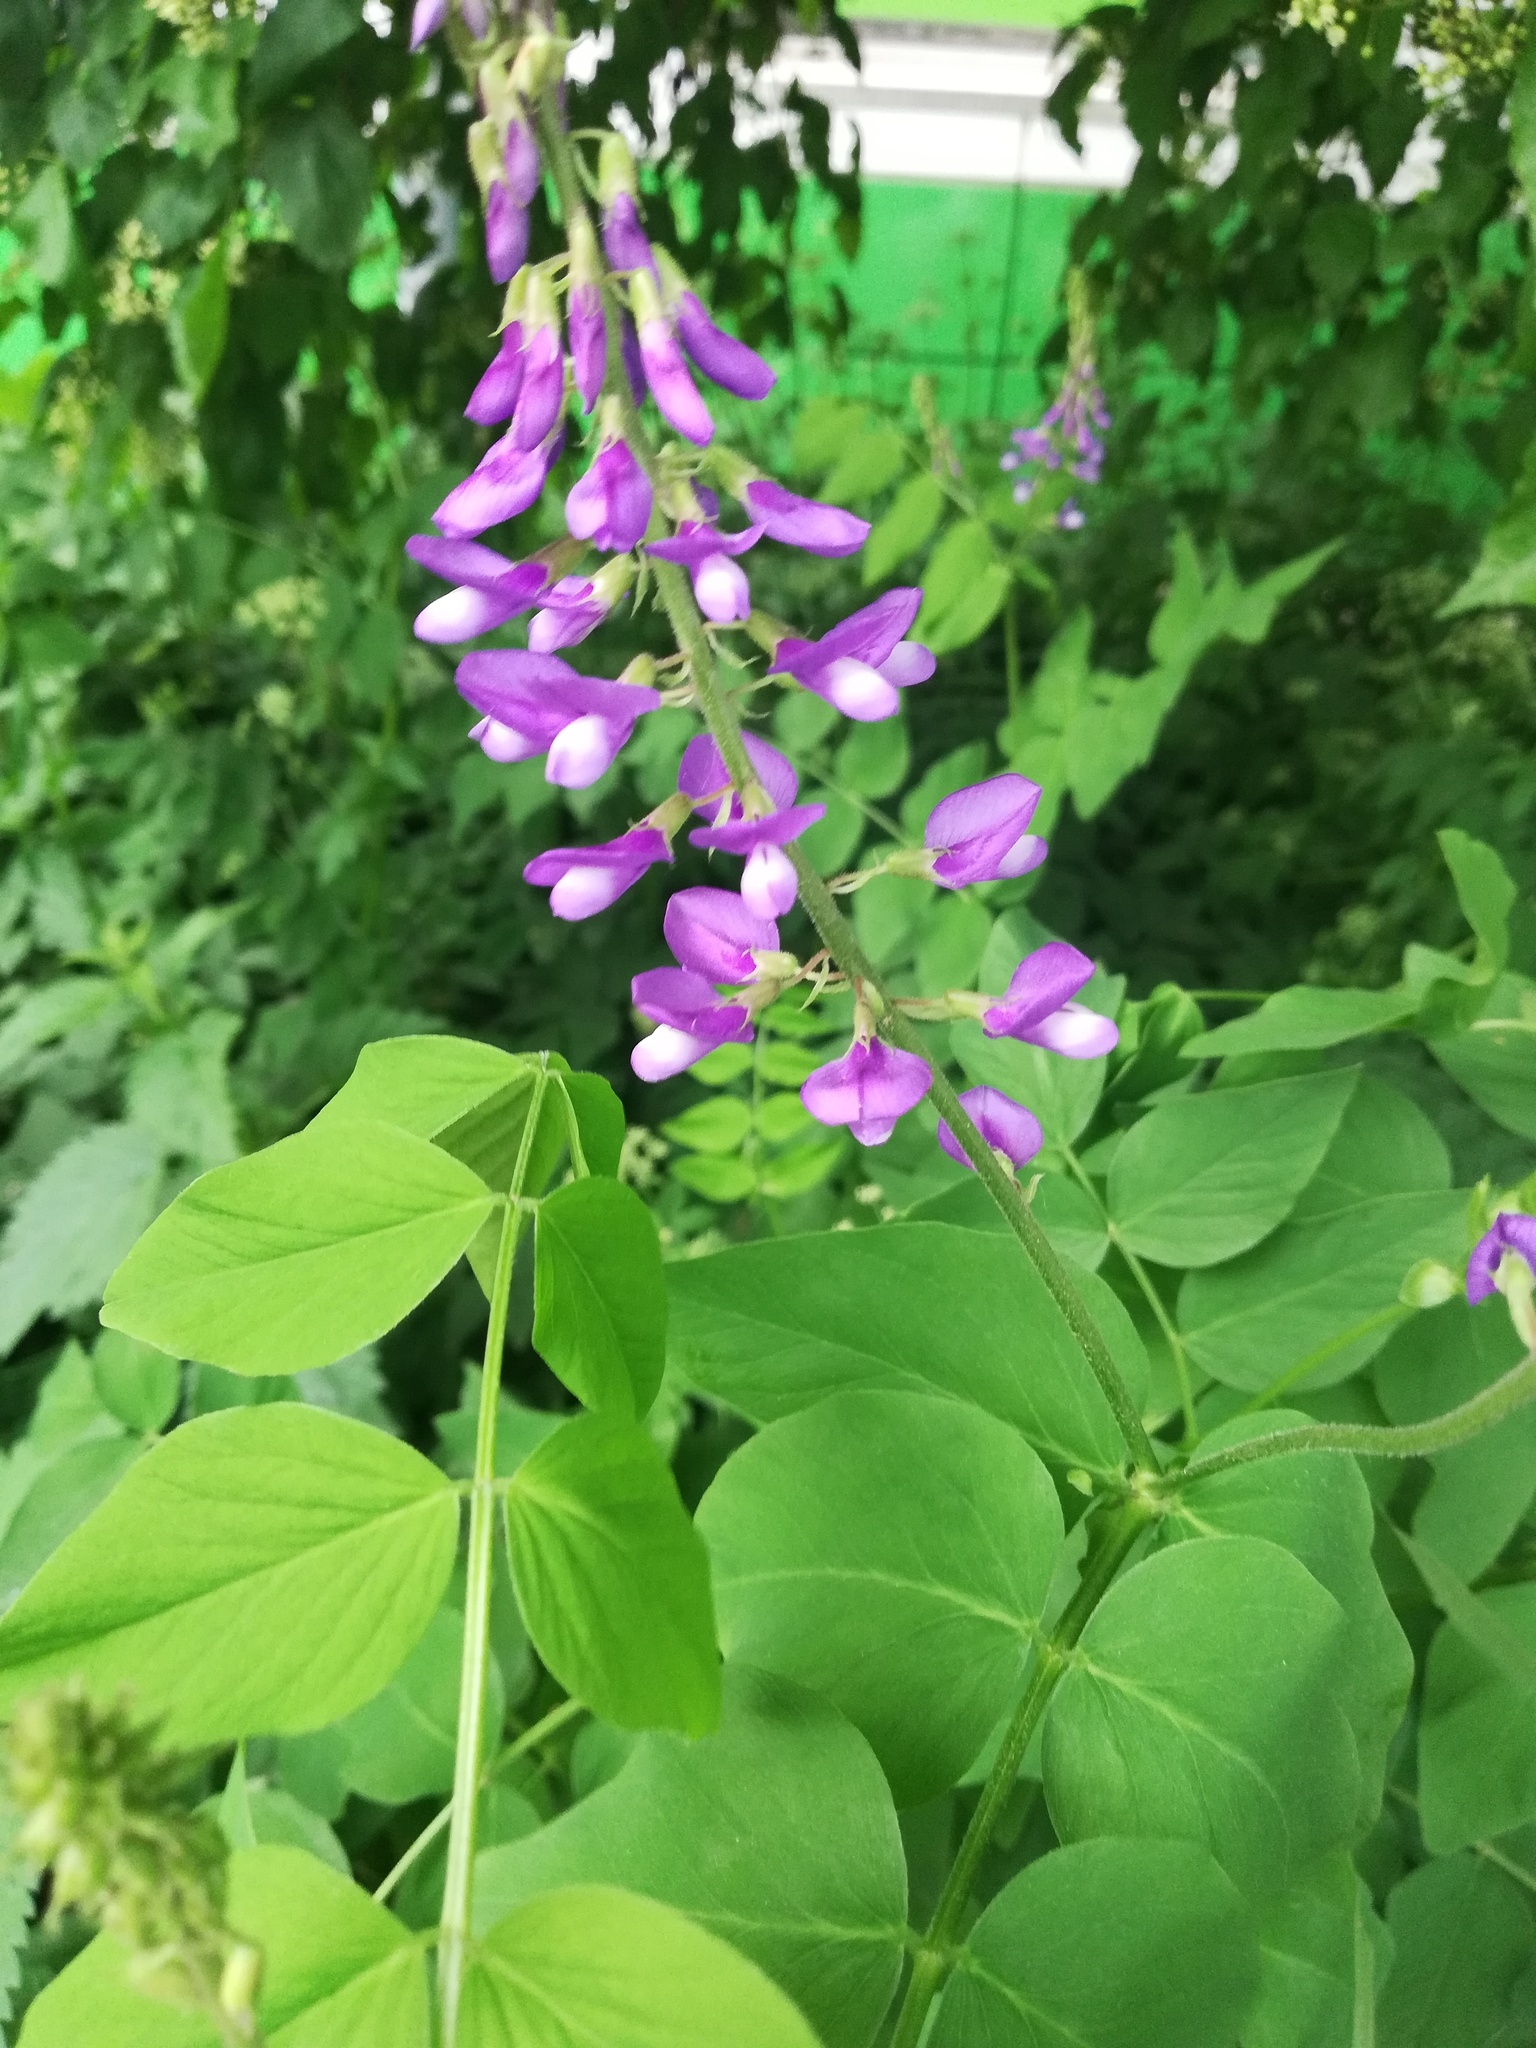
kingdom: Plantae
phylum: Tracheophyta
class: Magnoliopsida
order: Fabales
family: Fabaceae
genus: Galega
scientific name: Galega orientalis
